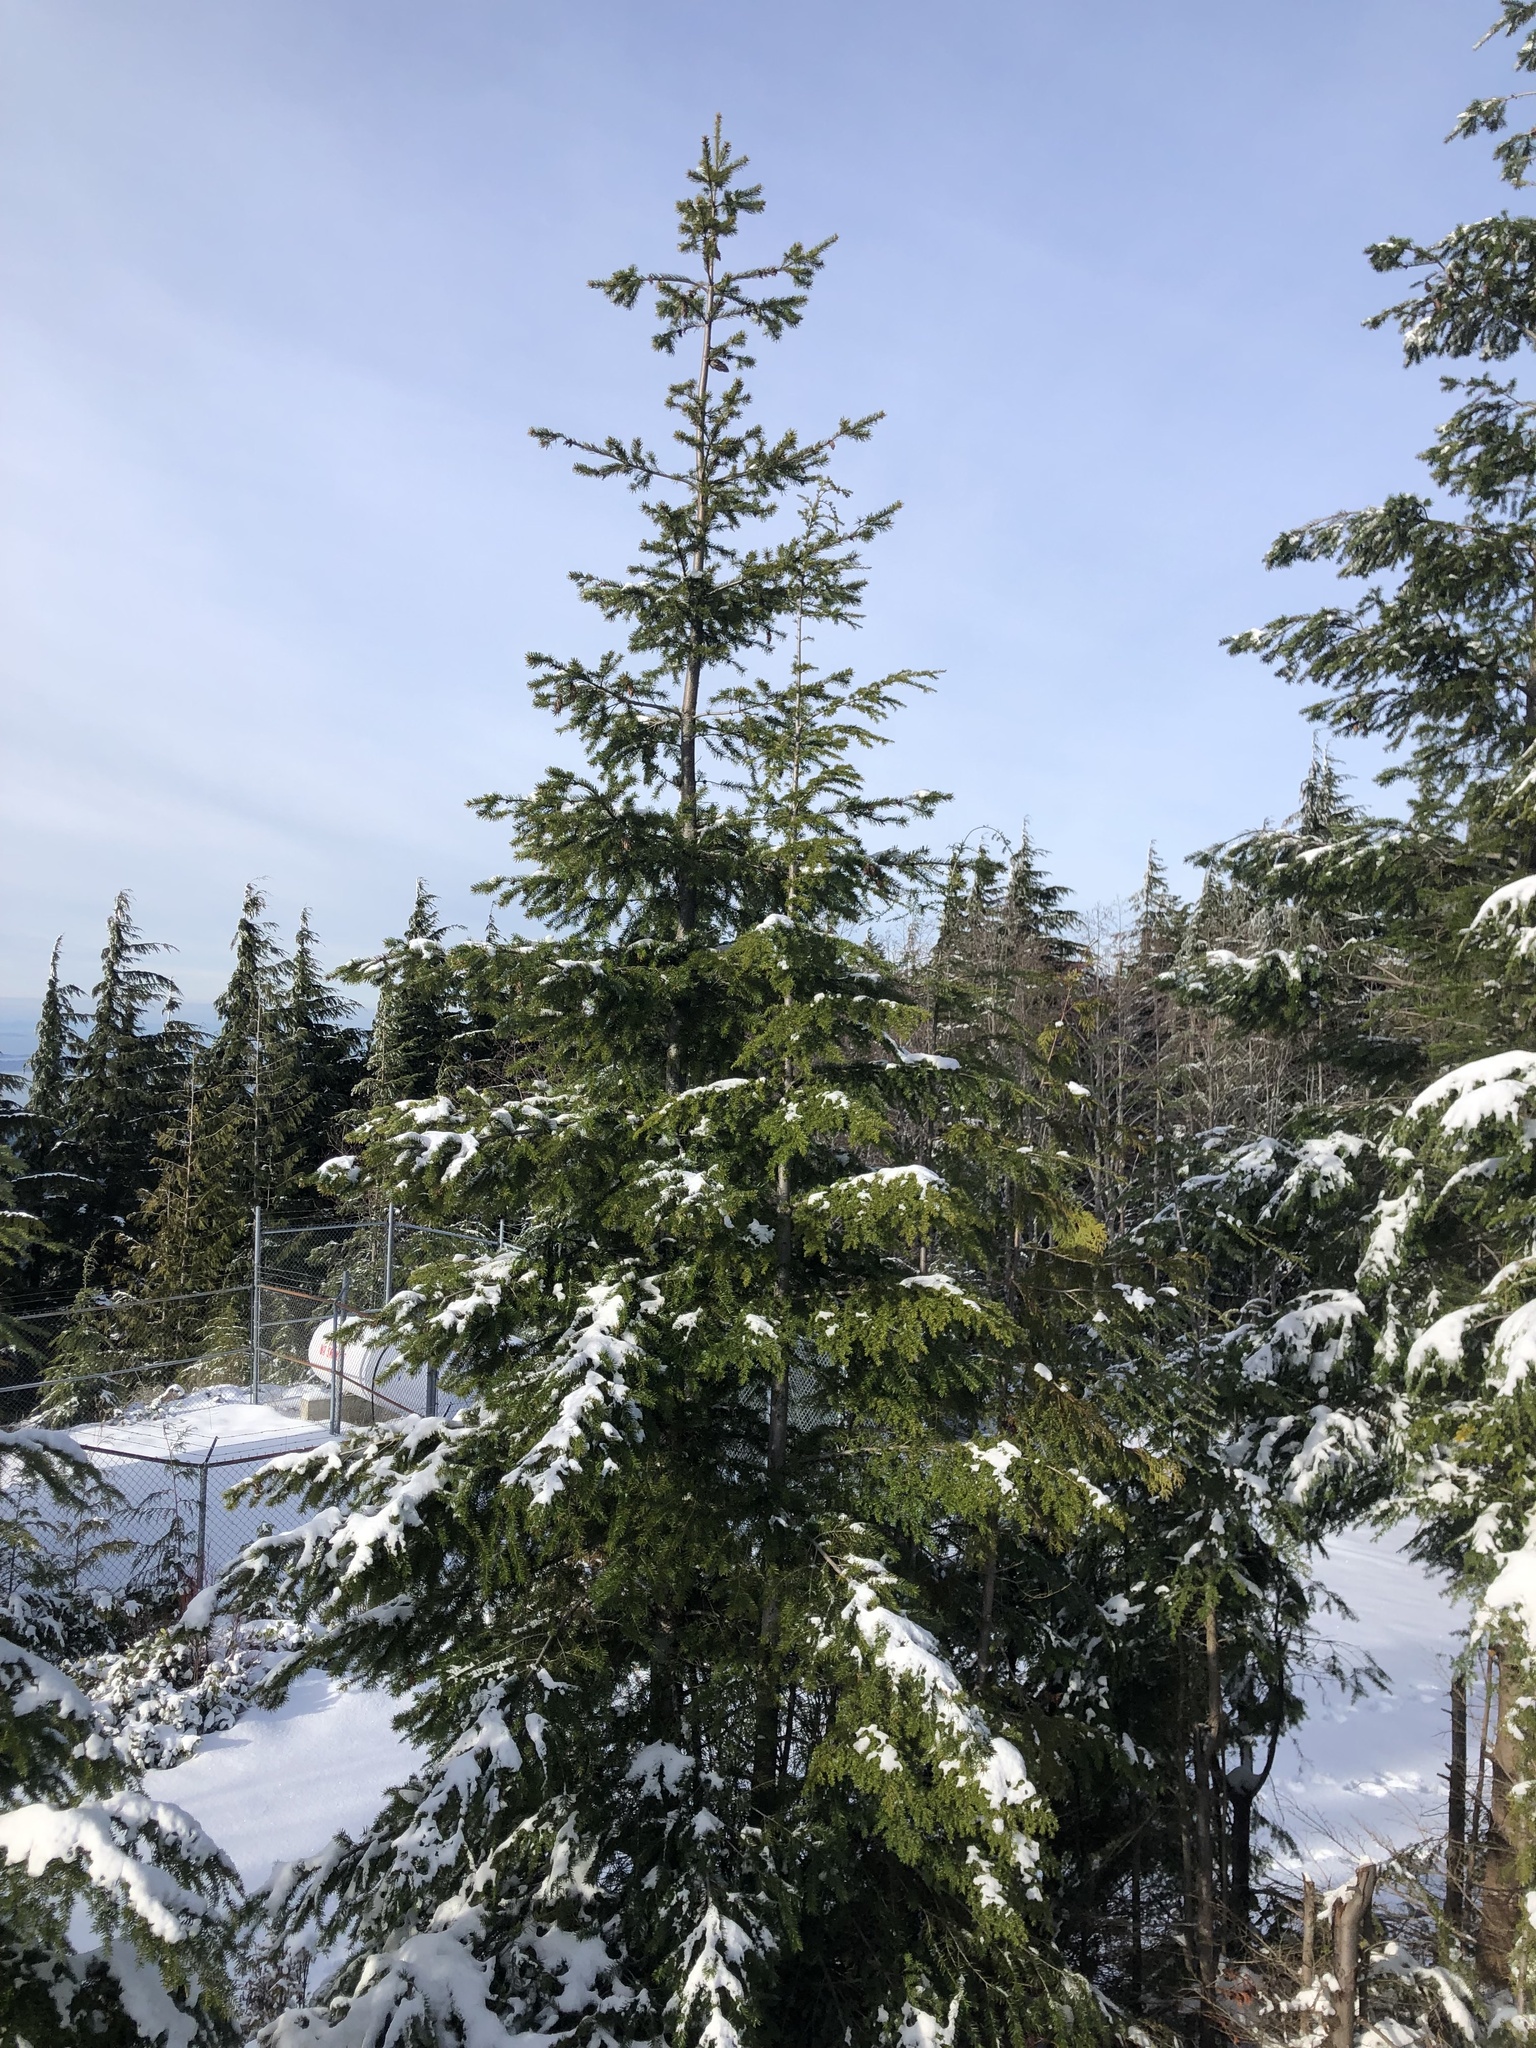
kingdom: Plantae
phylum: Tracheophyta
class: Pinopsida
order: Pinales
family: Pinaceae
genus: Pseudotsuga
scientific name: Pseudotsuga menziesii
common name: Douglas fir
